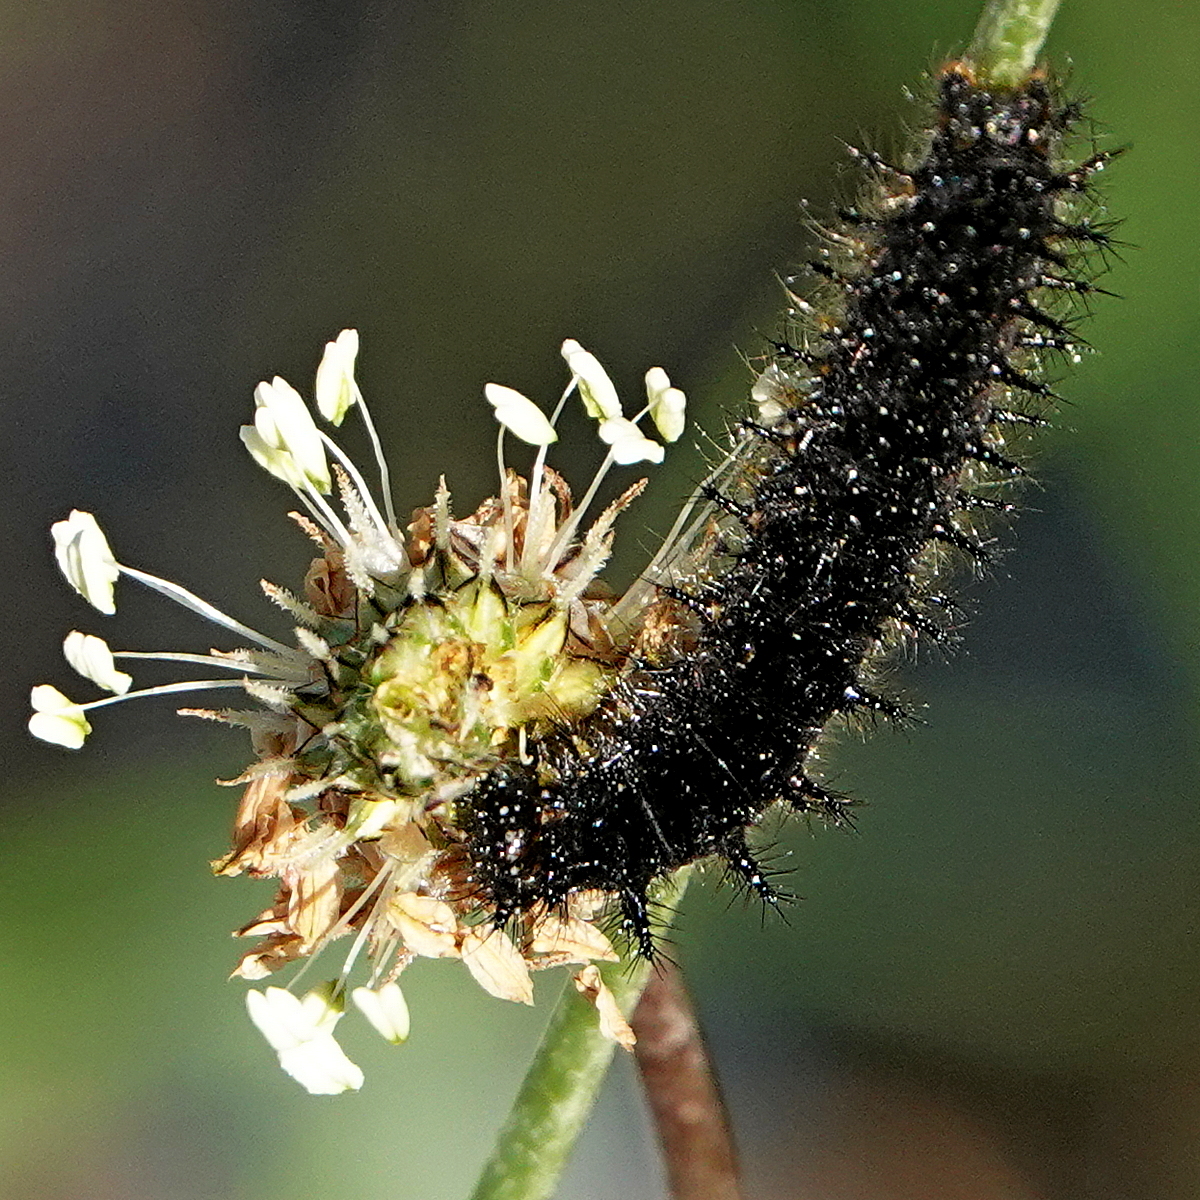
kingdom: Animalia
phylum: Arthropoda
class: Insecta
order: Lepidoptera
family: Nymphalidae
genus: Junonia
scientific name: Junonia villida
